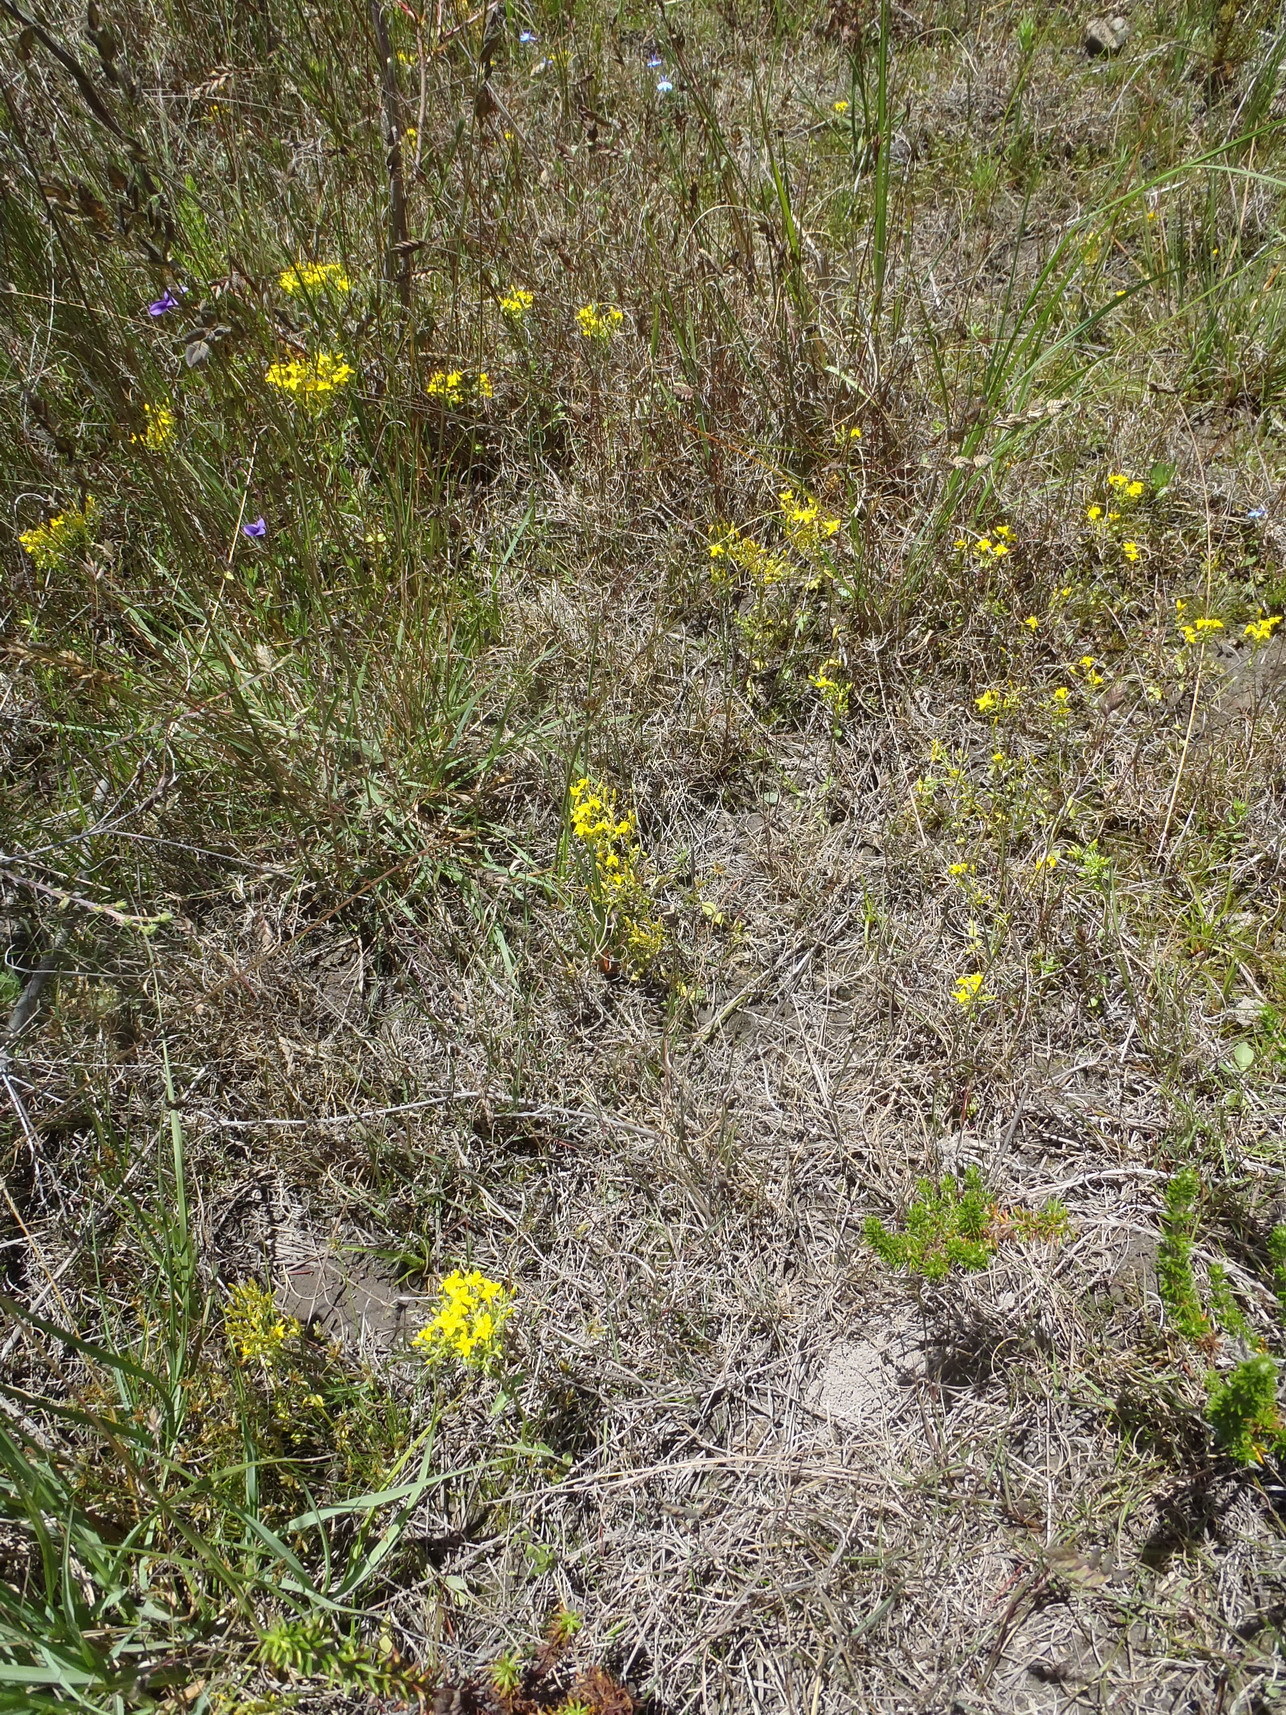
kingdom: Plantae
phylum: Tracheophyta
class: Magnoliopsida
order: Gentianales
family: Gentianaceae
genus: Sebaea
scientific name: Sebaea aurea
